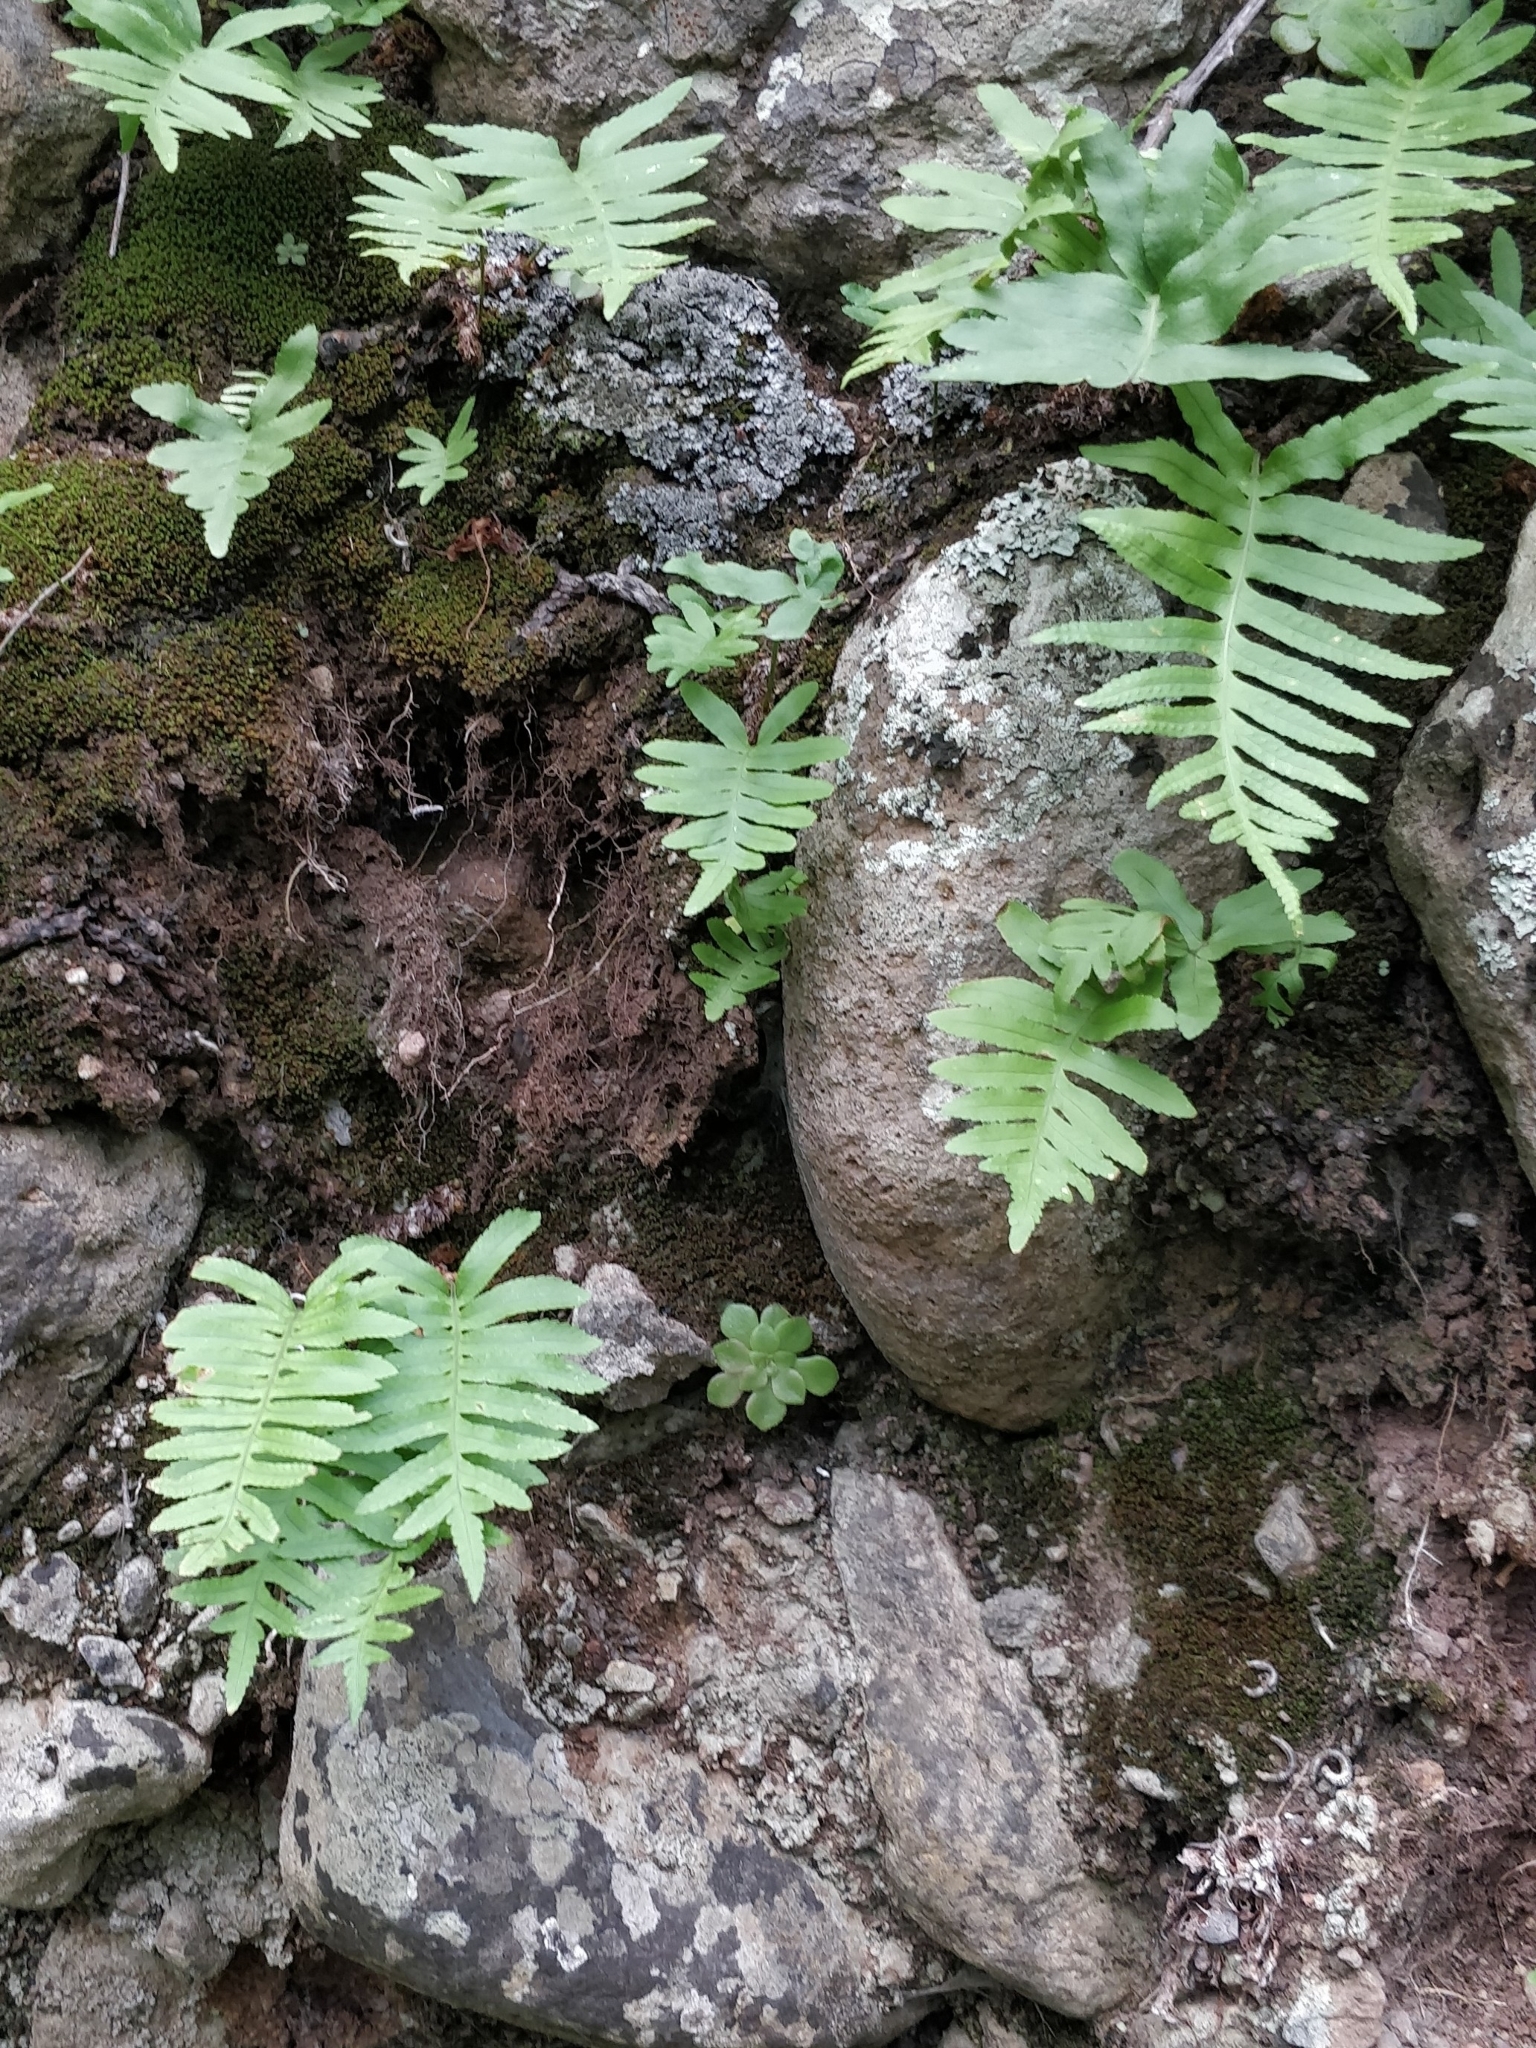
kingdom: Plantae
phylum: Tracheophyta
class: Polypodiopsida
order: Polypodiales
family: Polypodiaceae
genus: Polypodium
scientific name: Polypodium macaronesicum
